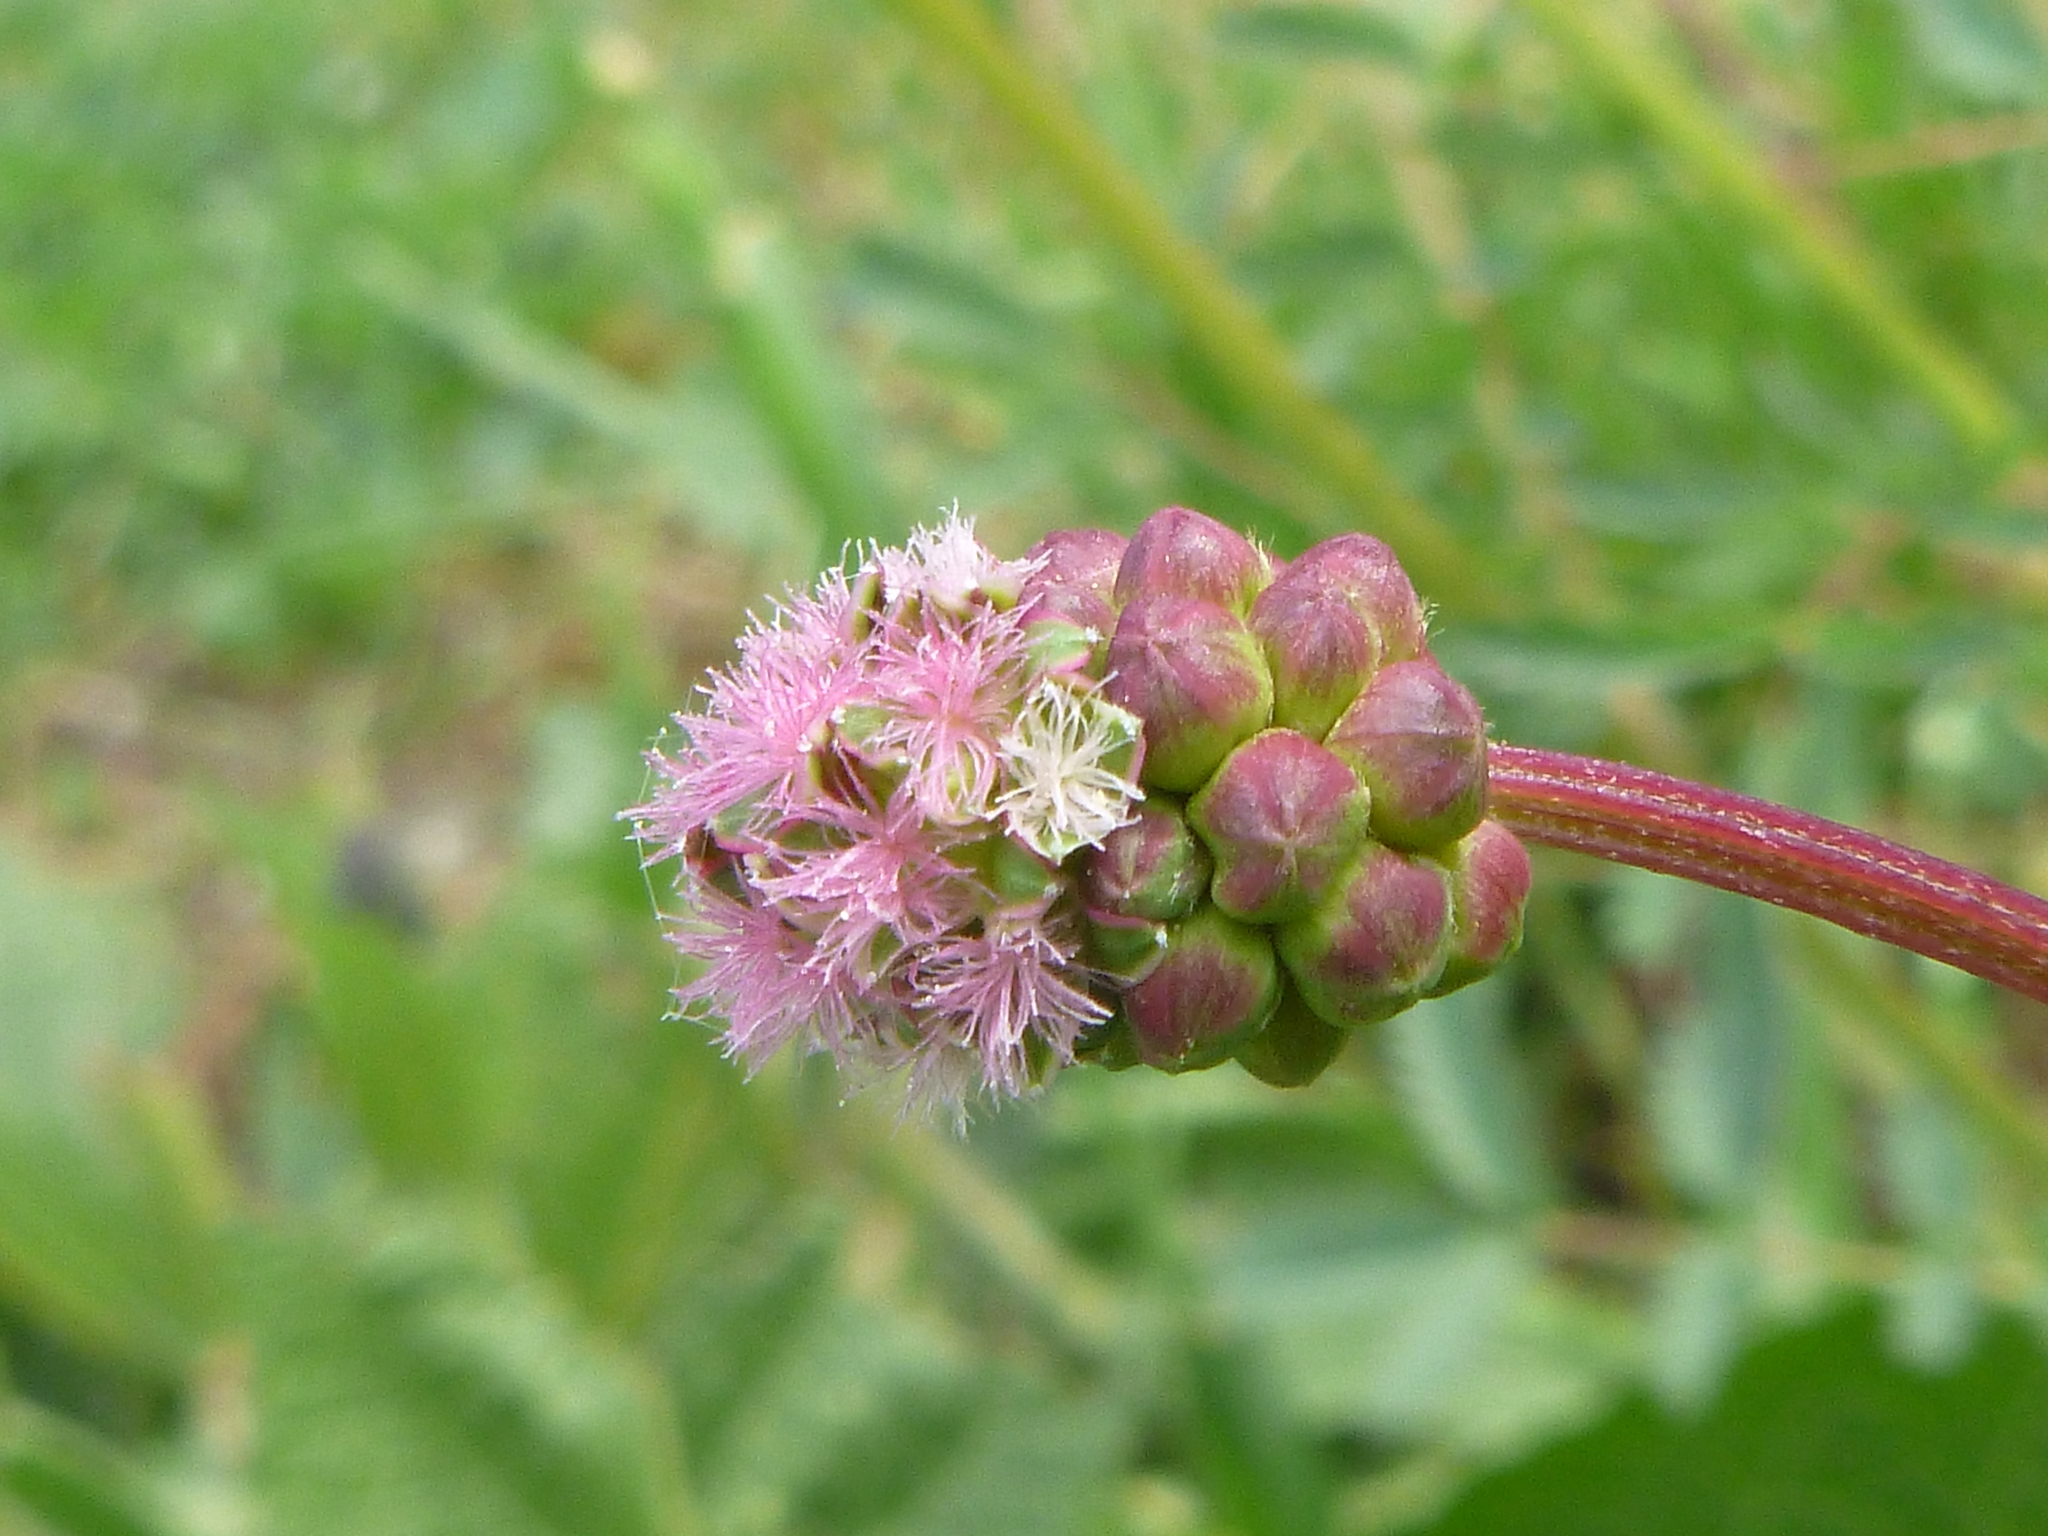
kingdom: Plantae
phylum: Tracheophyta
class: Magnoliopsida
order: Rosales
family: Rosaceae
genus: Poterium
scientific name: Poterium sanguisorba
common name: Salad burnet
